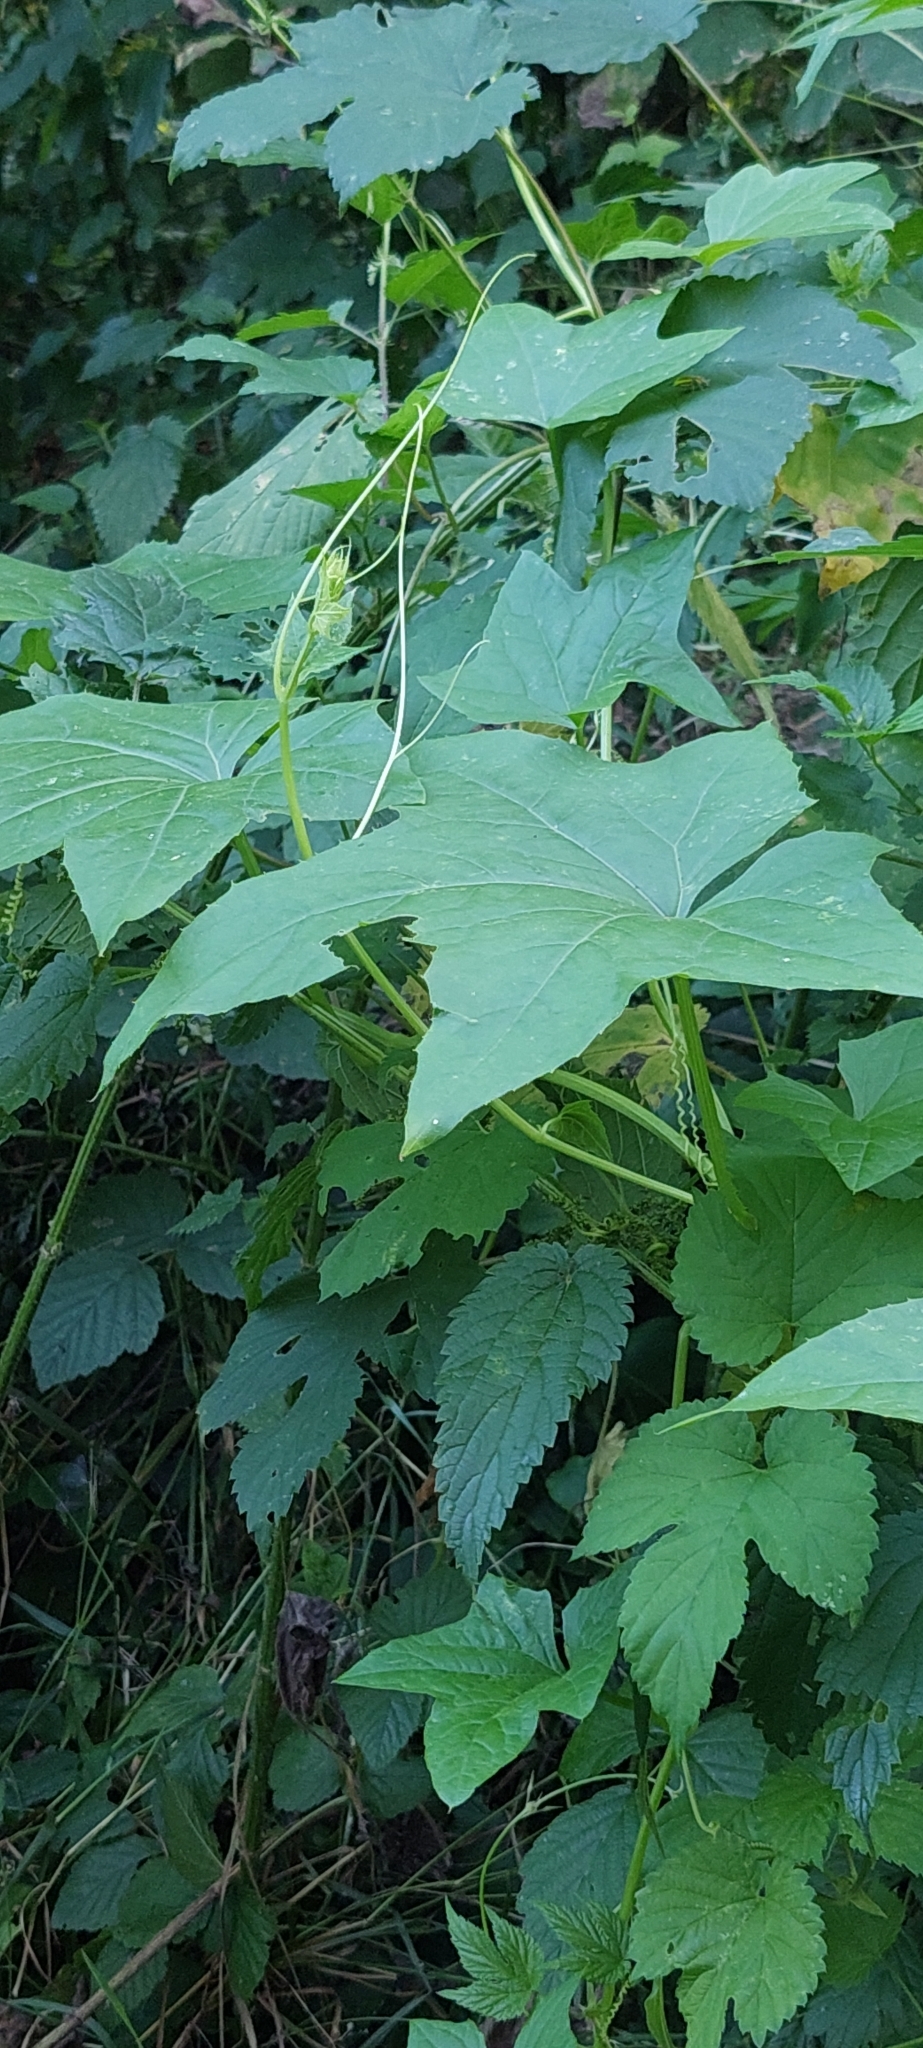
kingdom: Plantae
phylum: Tracheophyta
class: Magnoliopsida
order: Cucurbitales
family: Cucurbitaceae
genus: Echinocystis
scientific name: Echinocystis lobata
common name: Wild cucumber
